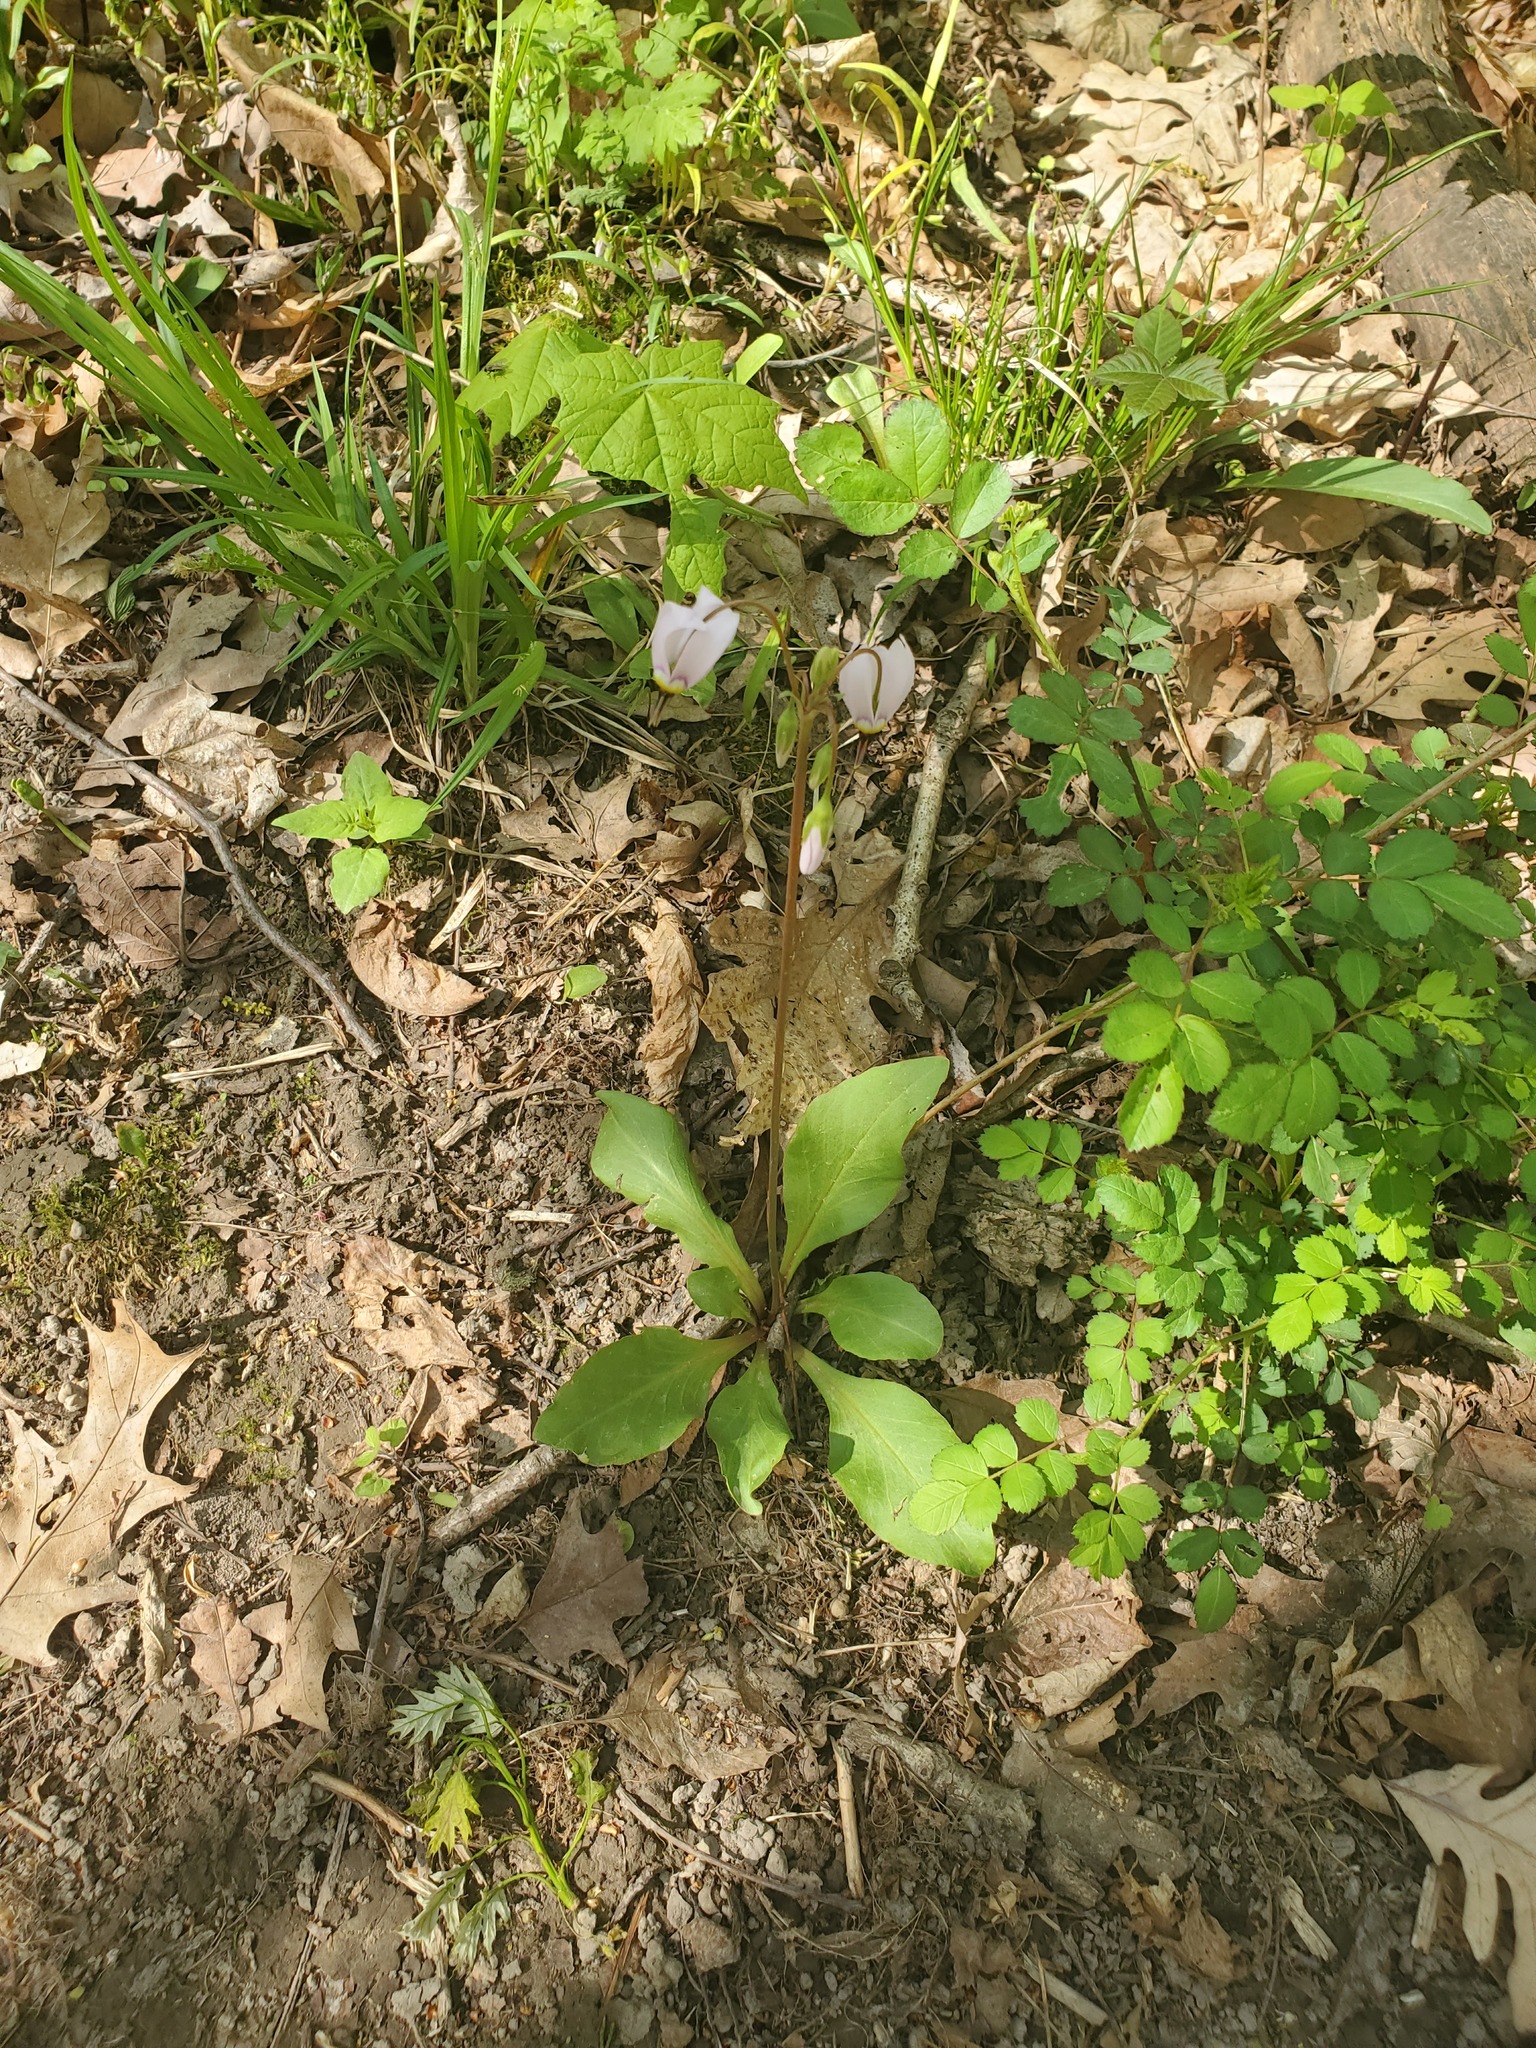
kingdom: Plantae
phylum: Tracheophyta
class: Magnoliopsida
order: Ericales
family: Primulaceae
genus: Dodecatheon
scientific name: Dodecatheon meadia
